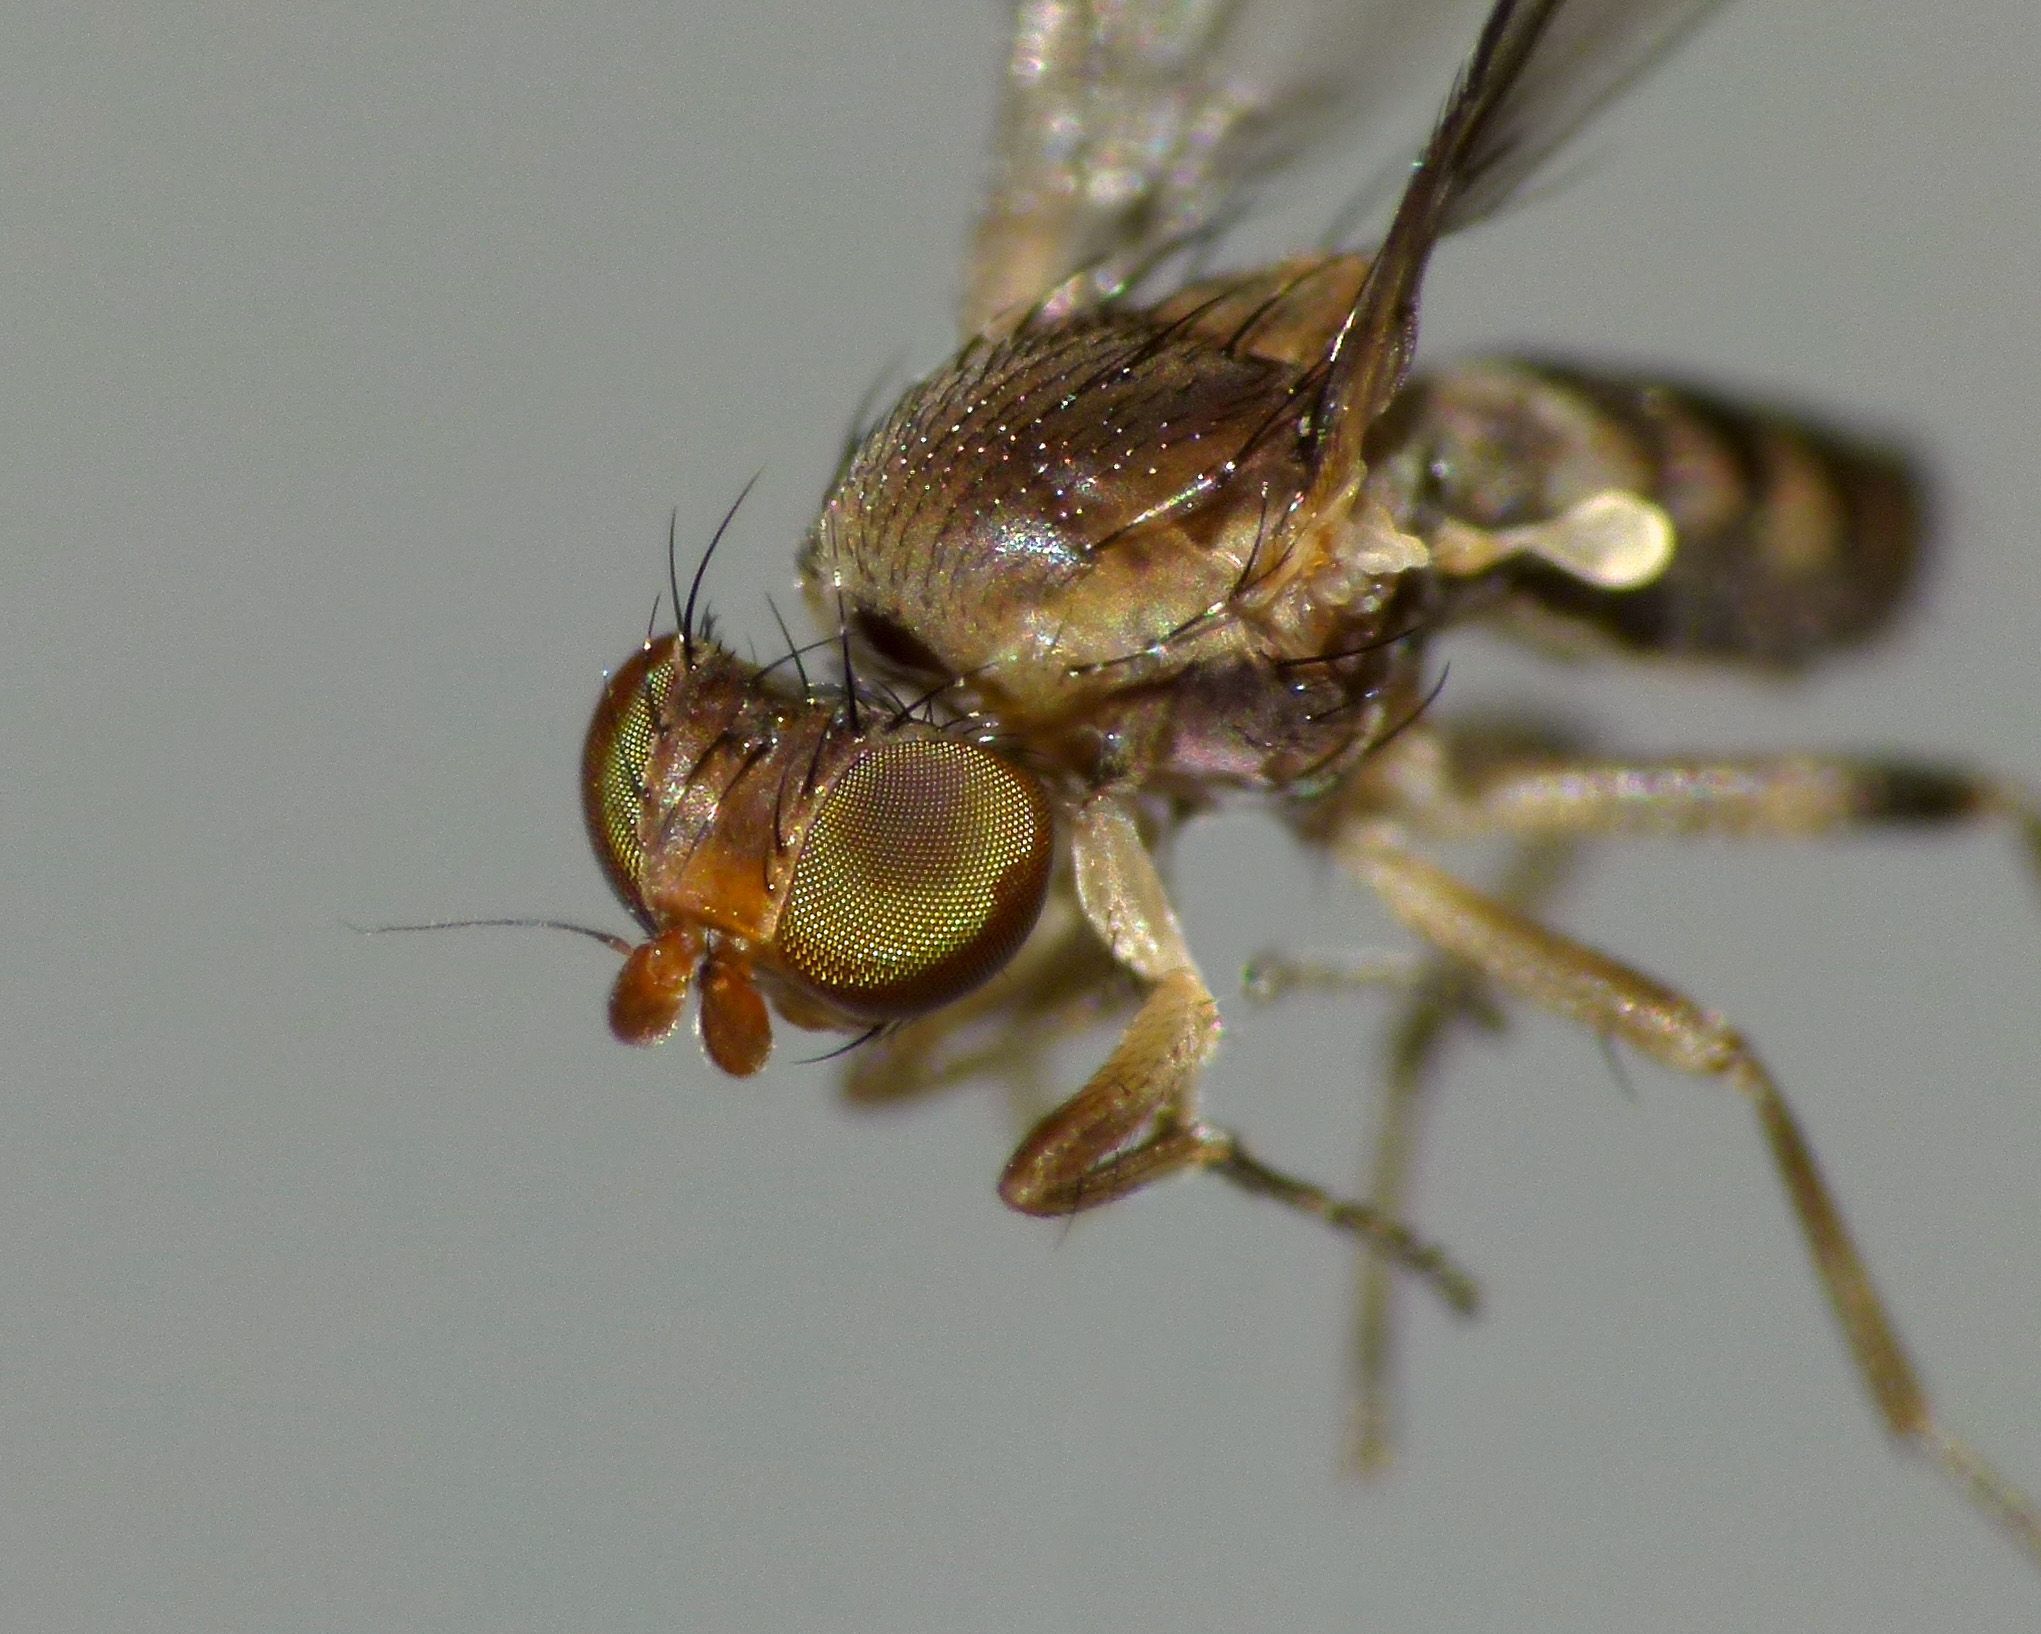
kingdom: Animalia
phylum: Arthropoda
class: Insecta
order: Diptera
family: Heleomyzidae
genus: Fenwickia
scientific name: Fenwickia hirsuta
